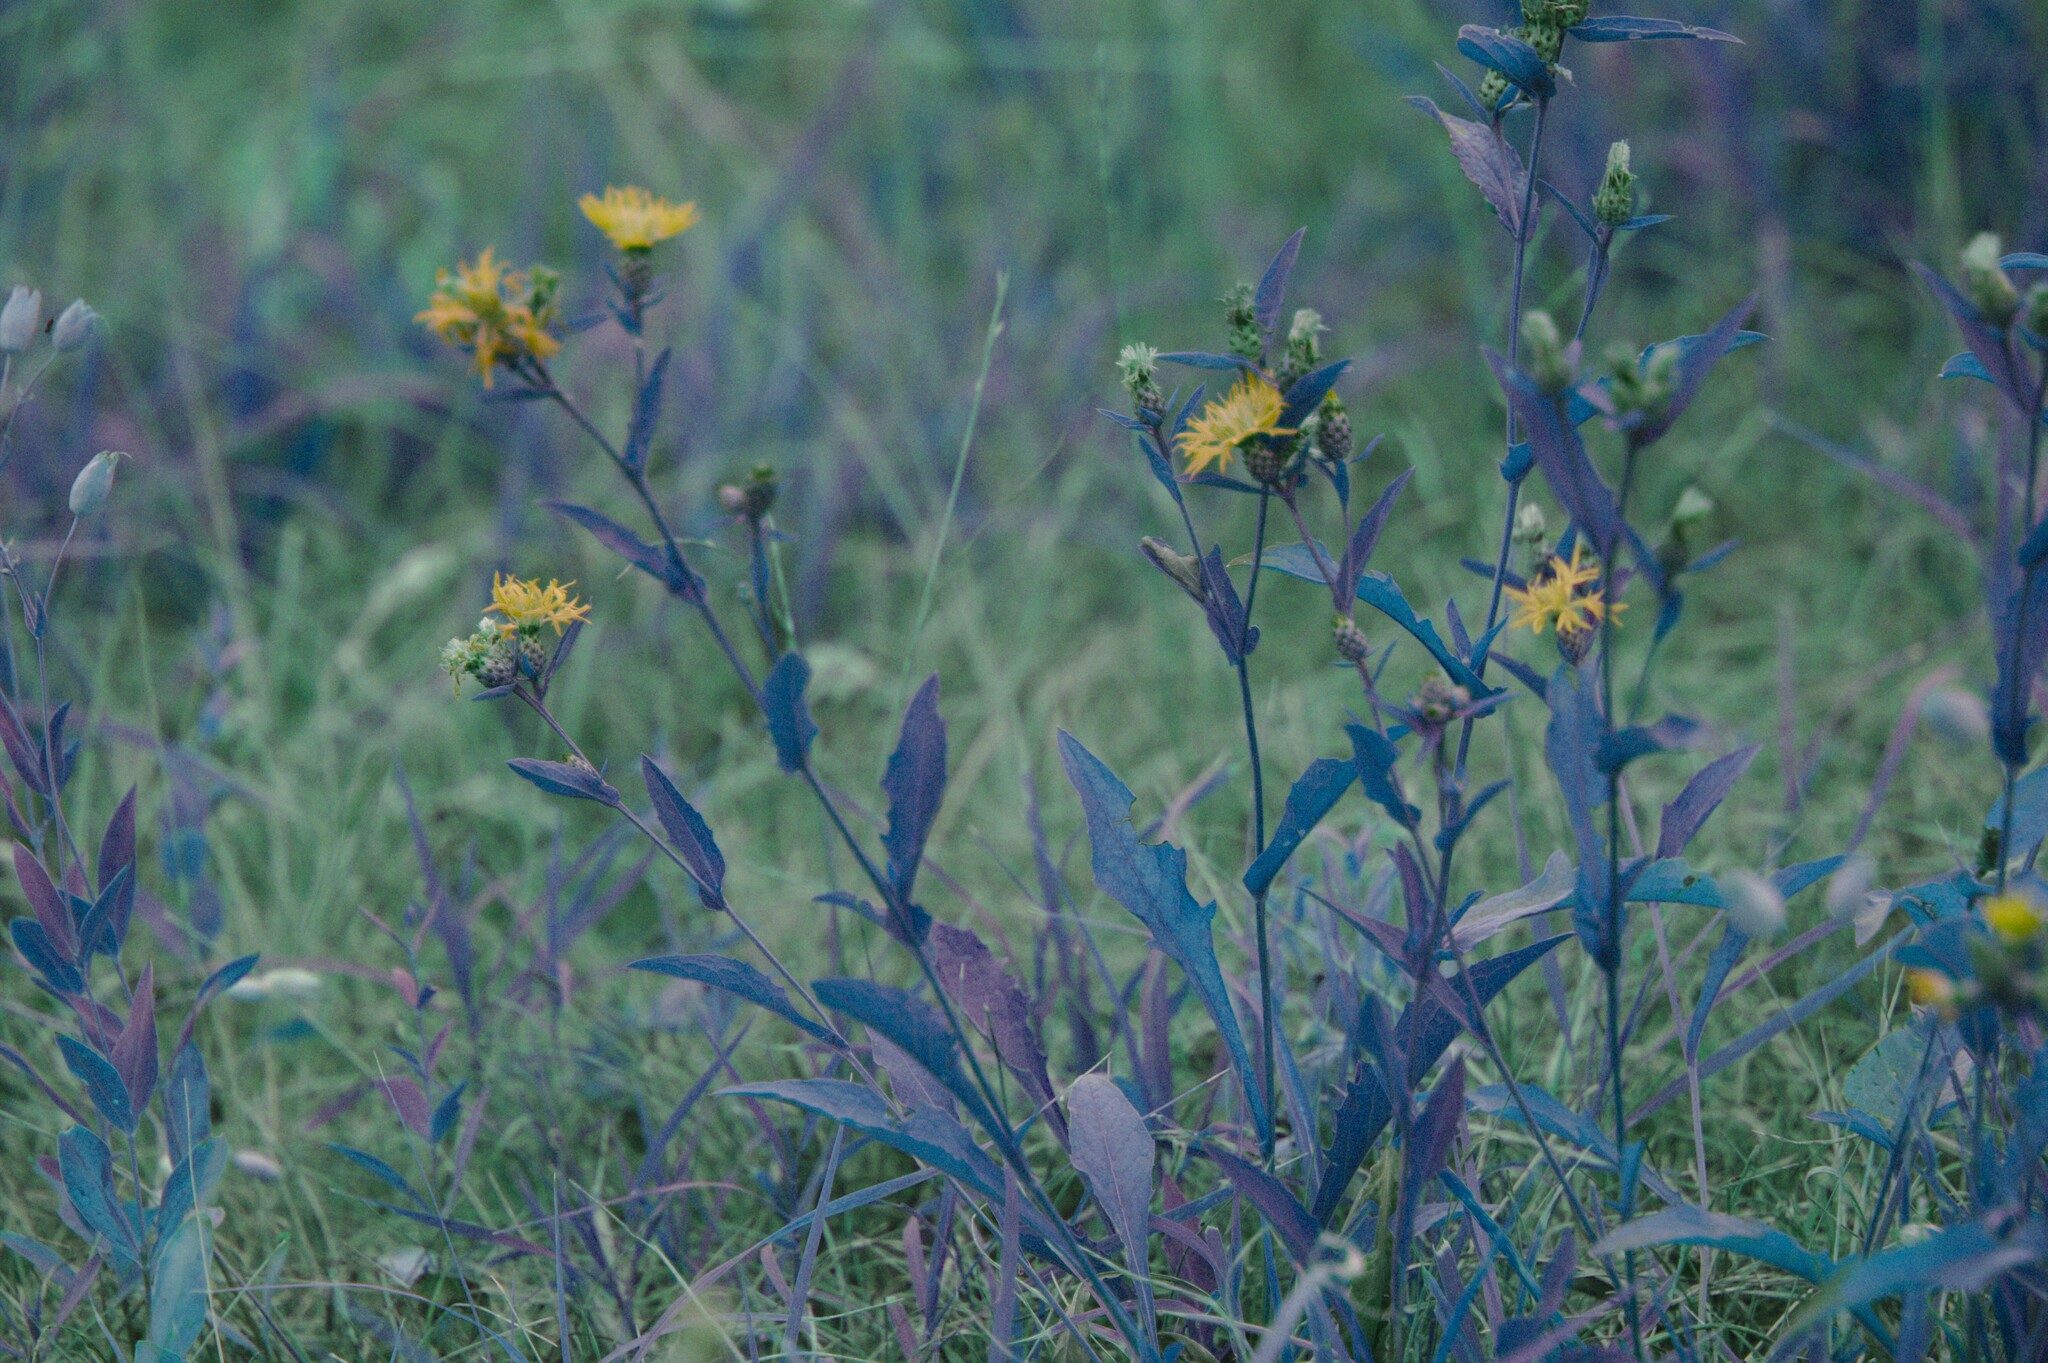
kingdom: Plantae
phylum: Tracheophyta
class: Magnoliopsida
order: Asterales
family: Asteraceae
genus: Centaurea
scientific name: Centaurea nigrescens
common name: Tyrol knapweed
